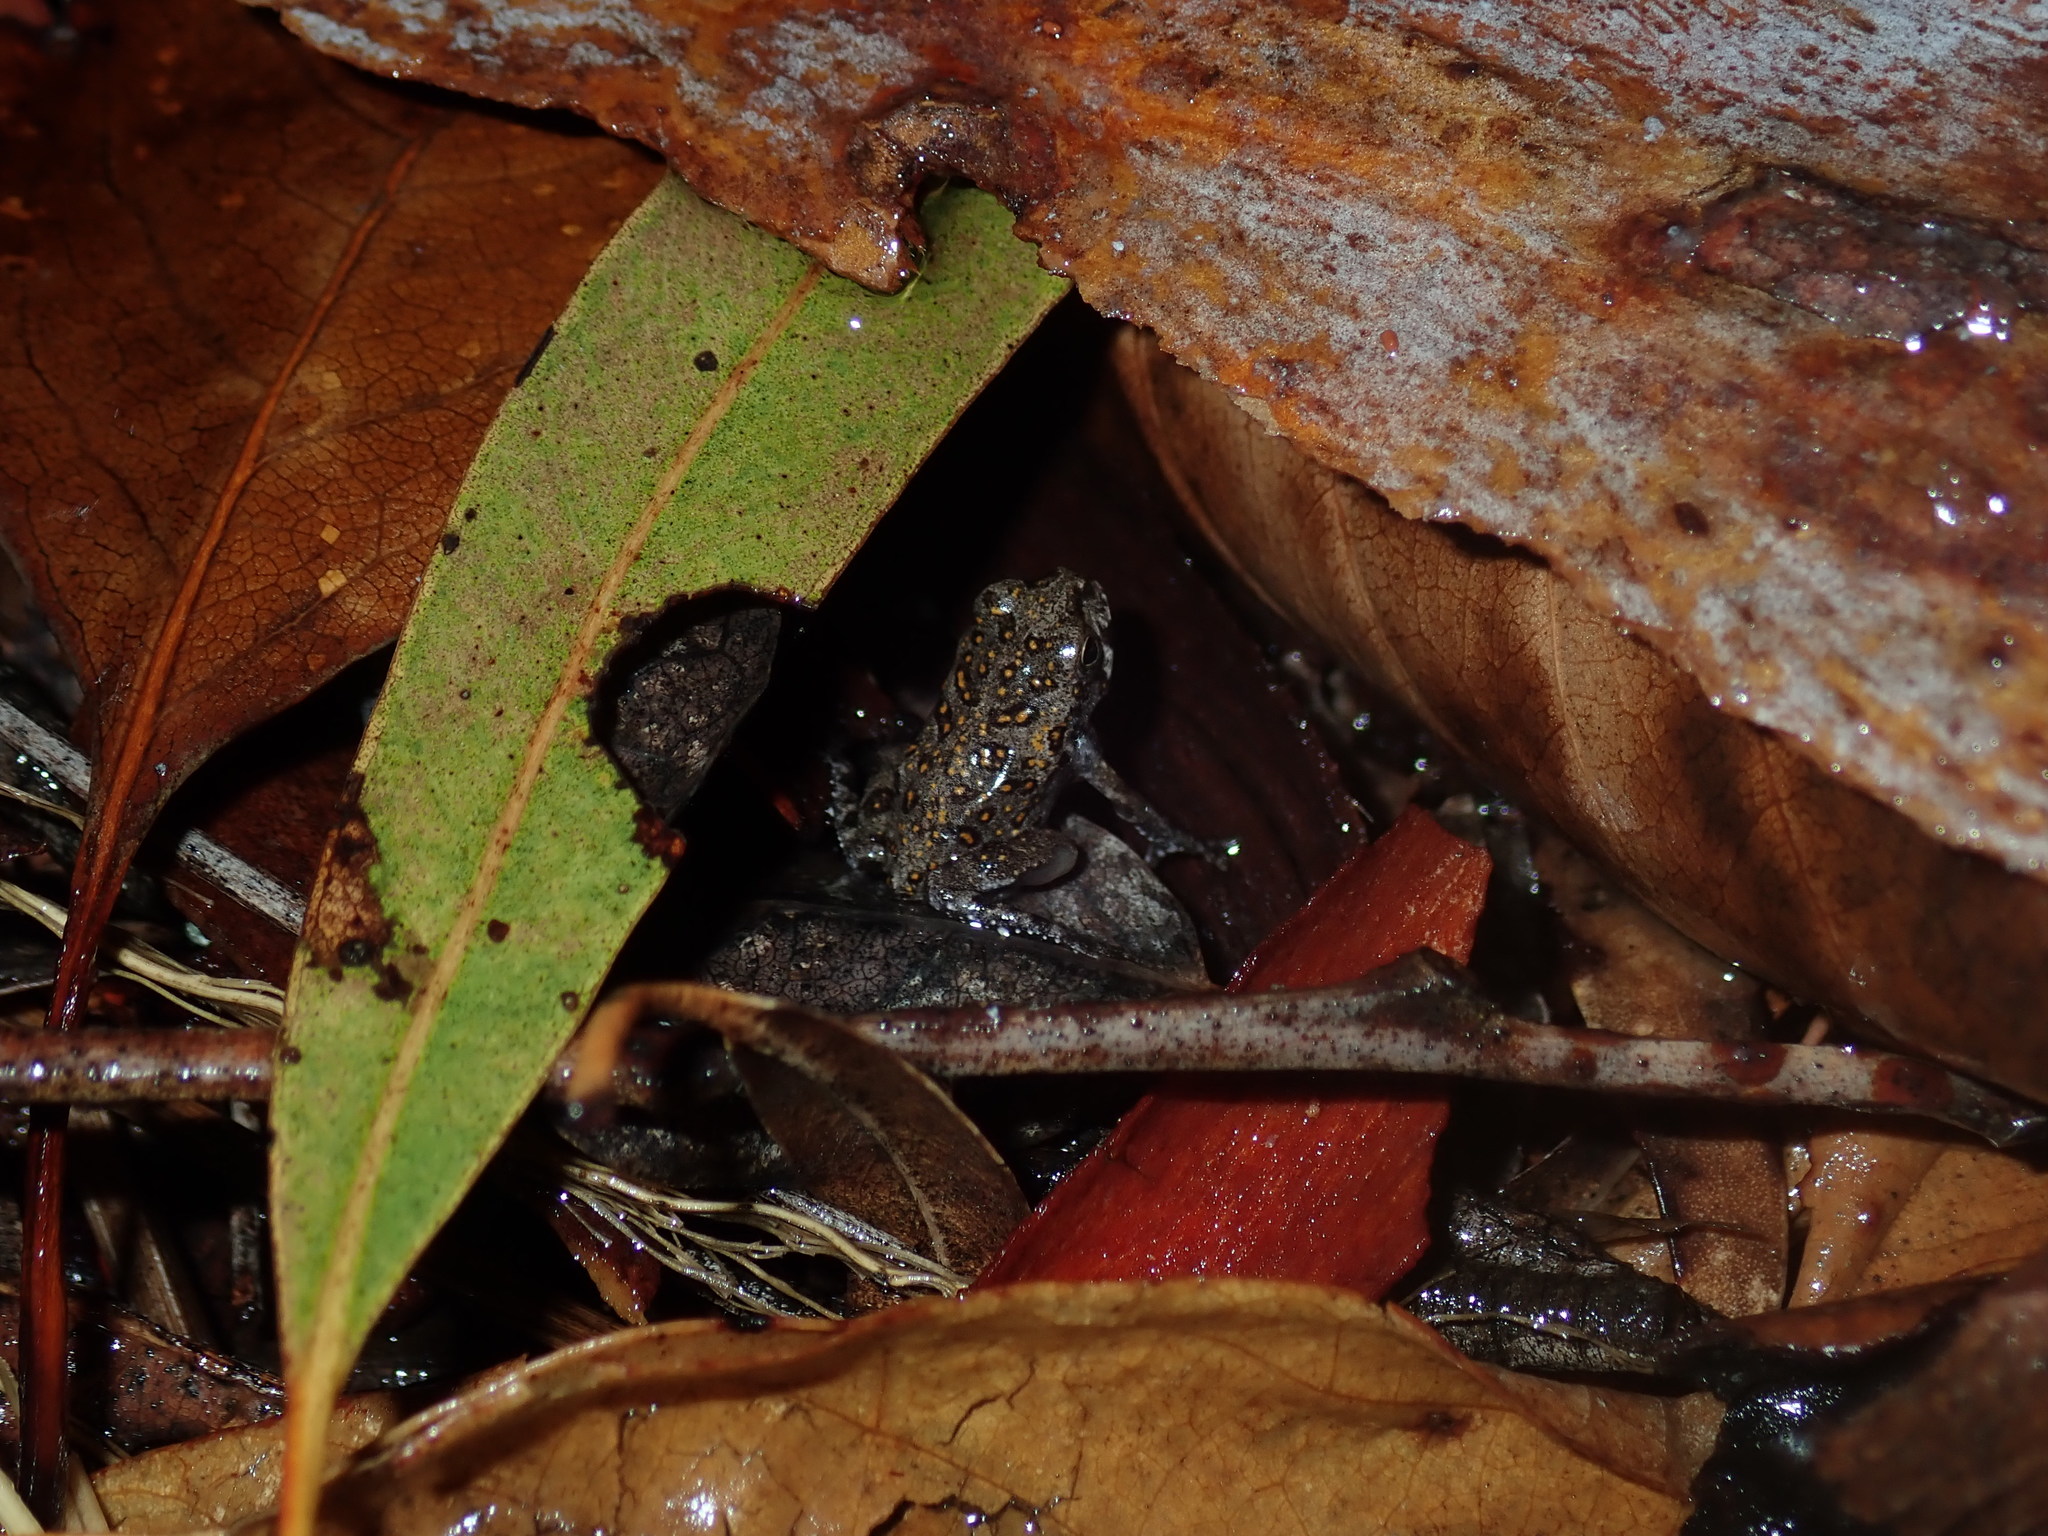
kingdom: Animalia
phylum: Chordata
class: Amphibia
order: Anura
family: Bufonidae
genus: Rhinella
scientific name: Rhinella marina
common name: Cane toad
